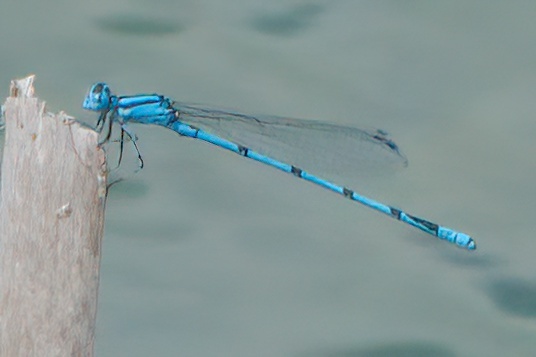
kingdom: Animalia
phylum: Arthropoda
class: Insecta
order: Odonata
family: Coenagrionidae
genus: Enallagma
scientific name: Enallagma doubledayi
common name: Atlantic bluet
